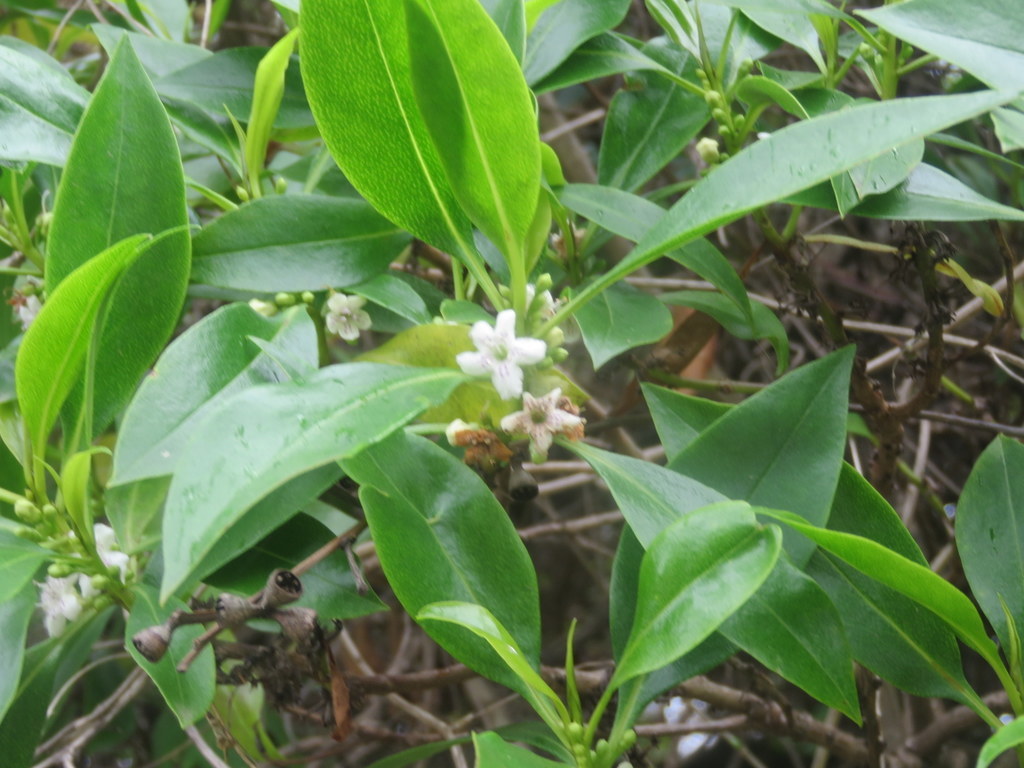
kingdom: Plantae
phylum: Tracheophyta
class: Magnoliopsida
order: Lamiales
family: Scrophulariaceae
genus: Myoporum
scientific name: Myoporum laetum
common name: Ngaio tree
